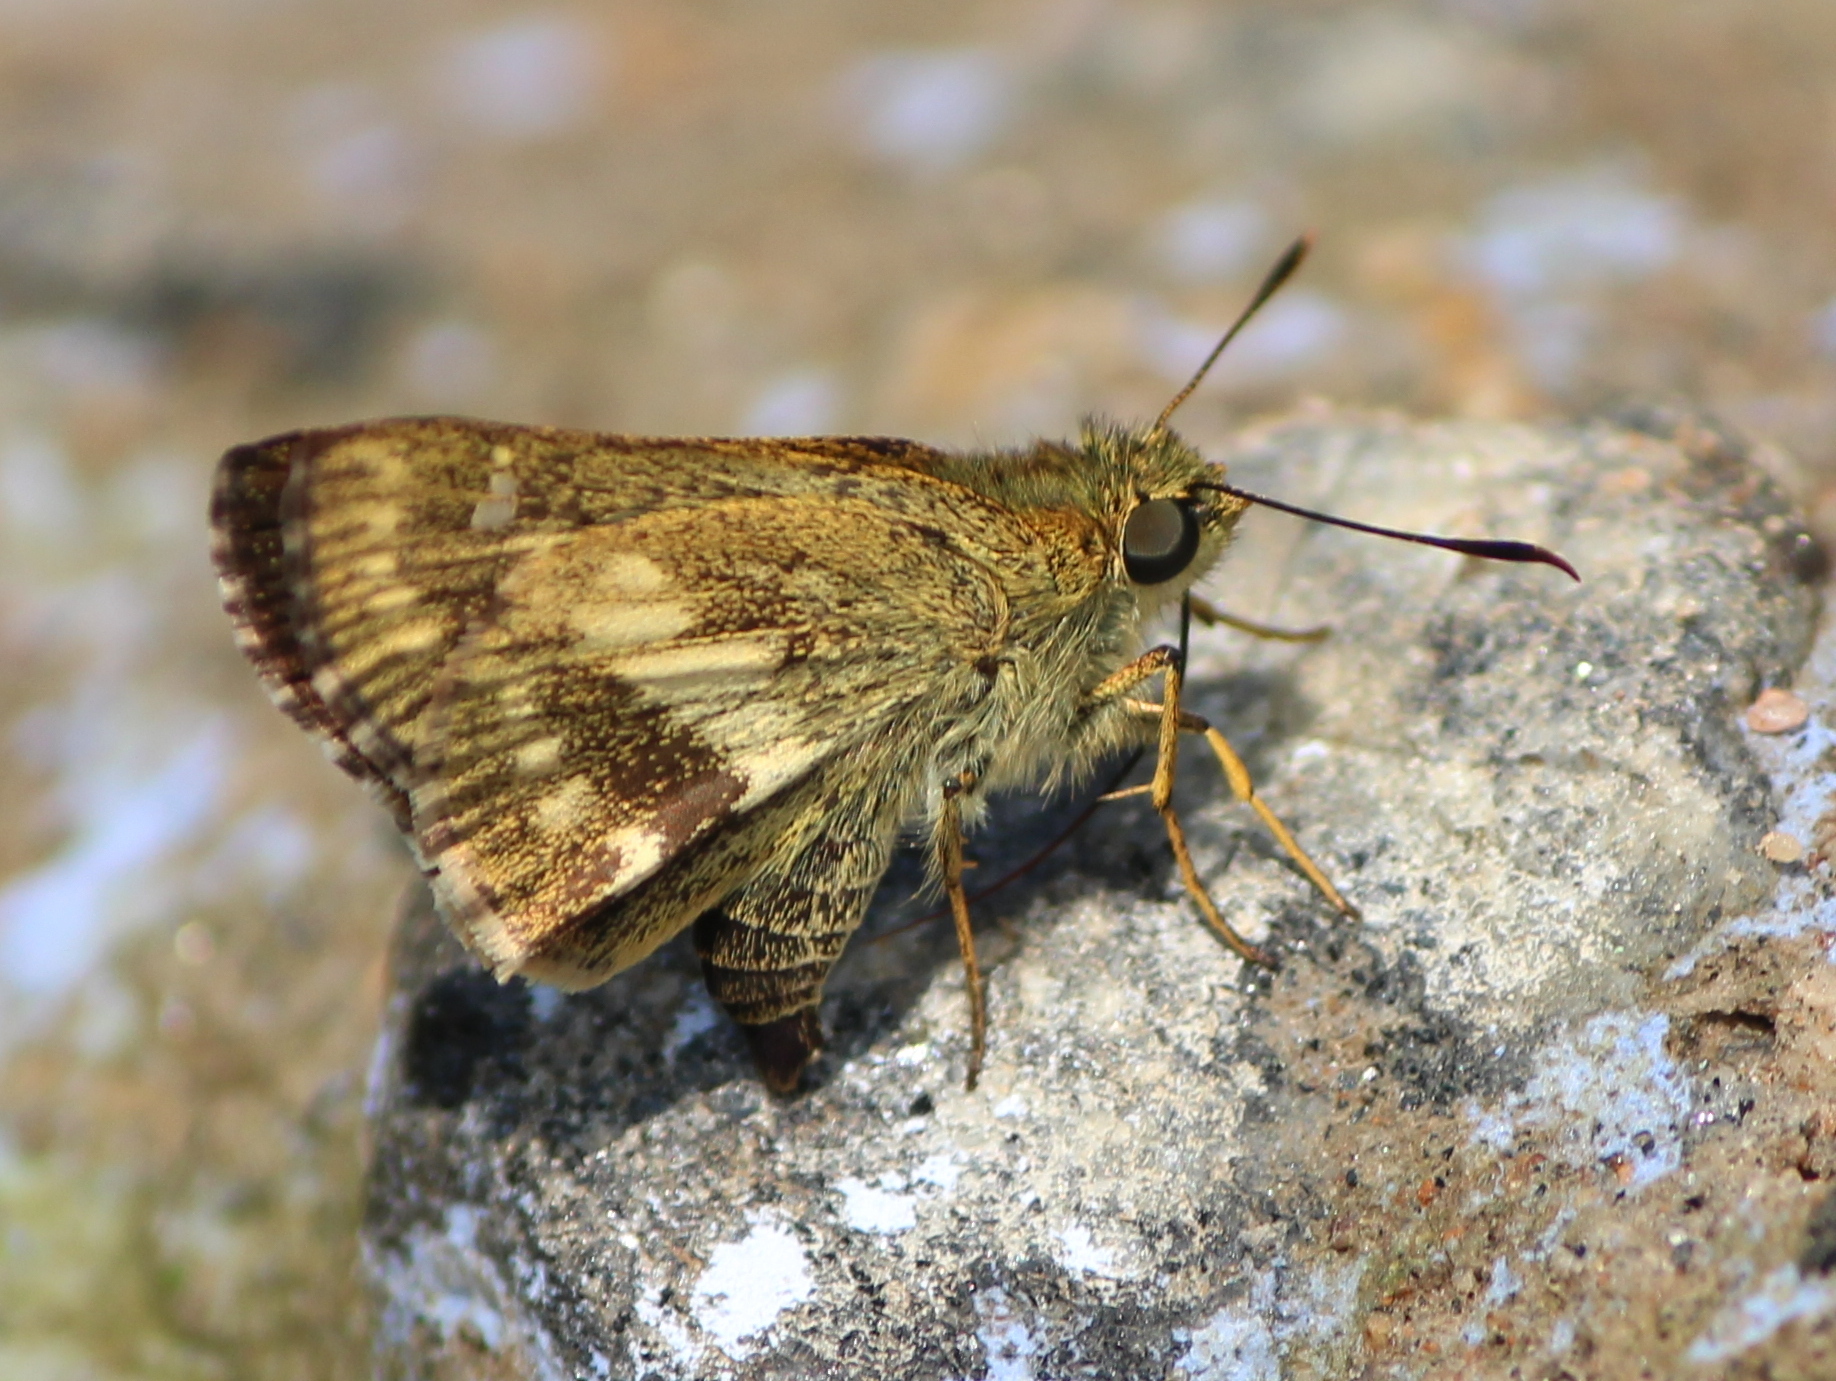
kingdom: Animalia
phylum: Arthropoda
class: Insecta
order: Lepidoptera
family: Hesperiidae
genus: Halpe
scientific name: Halpe homolea
